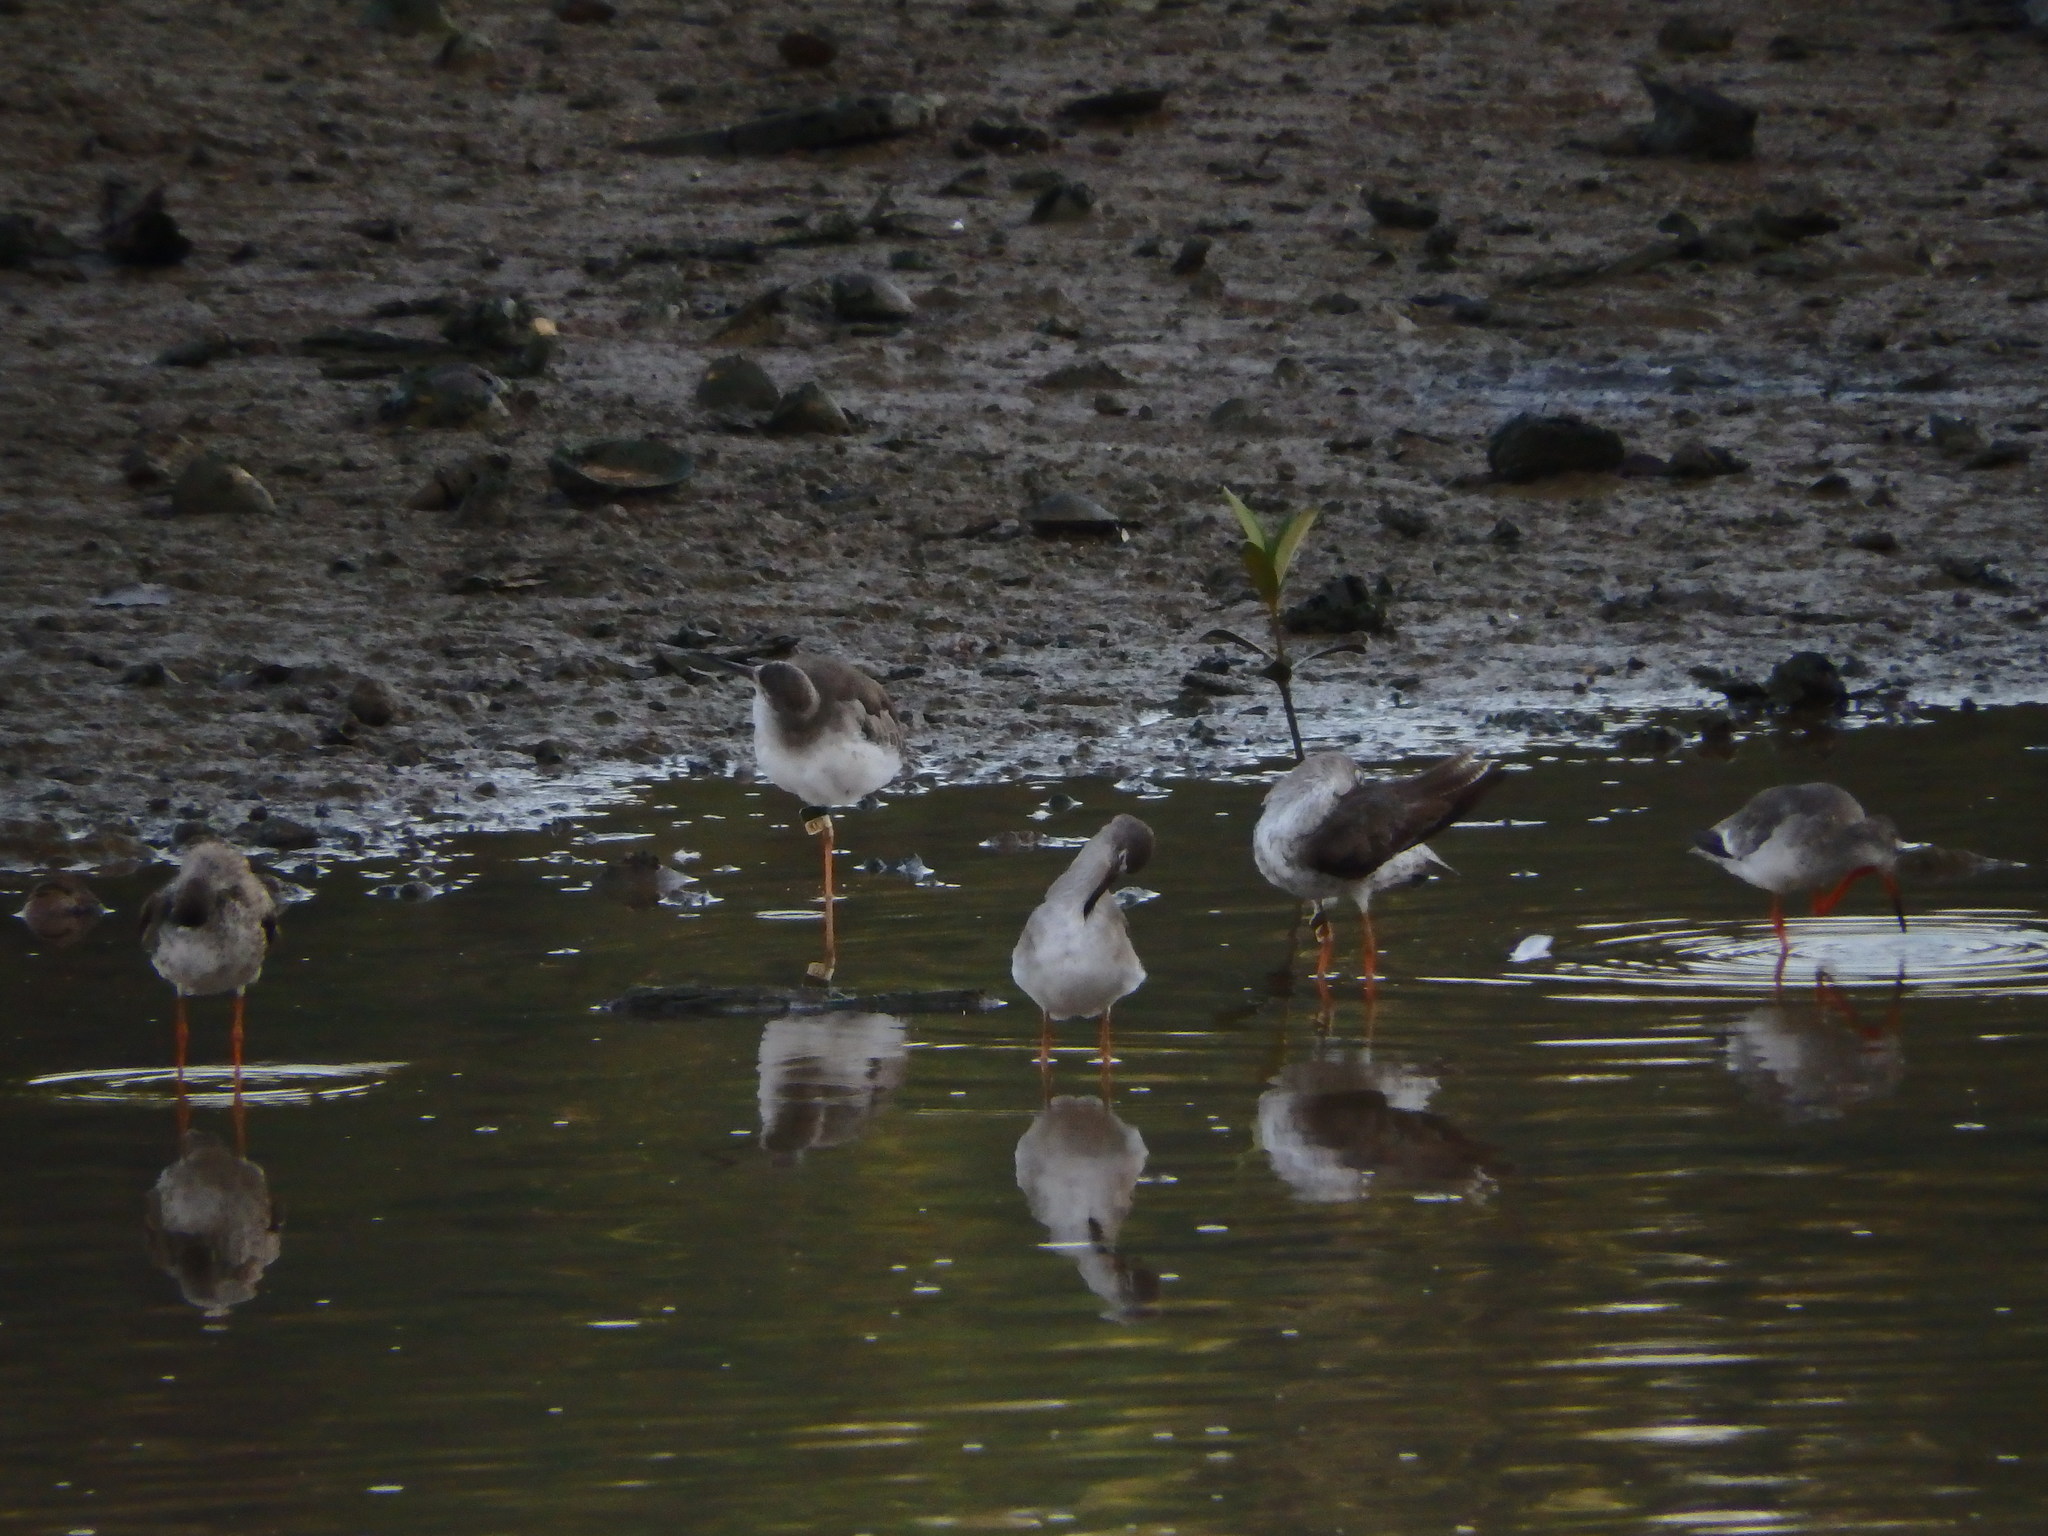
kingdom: Animalia
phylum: Chordata
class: Aves
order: Charadriiformes
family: Scolopacidae
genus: Tringa
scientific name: Tringa totanus
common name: Common redshank
